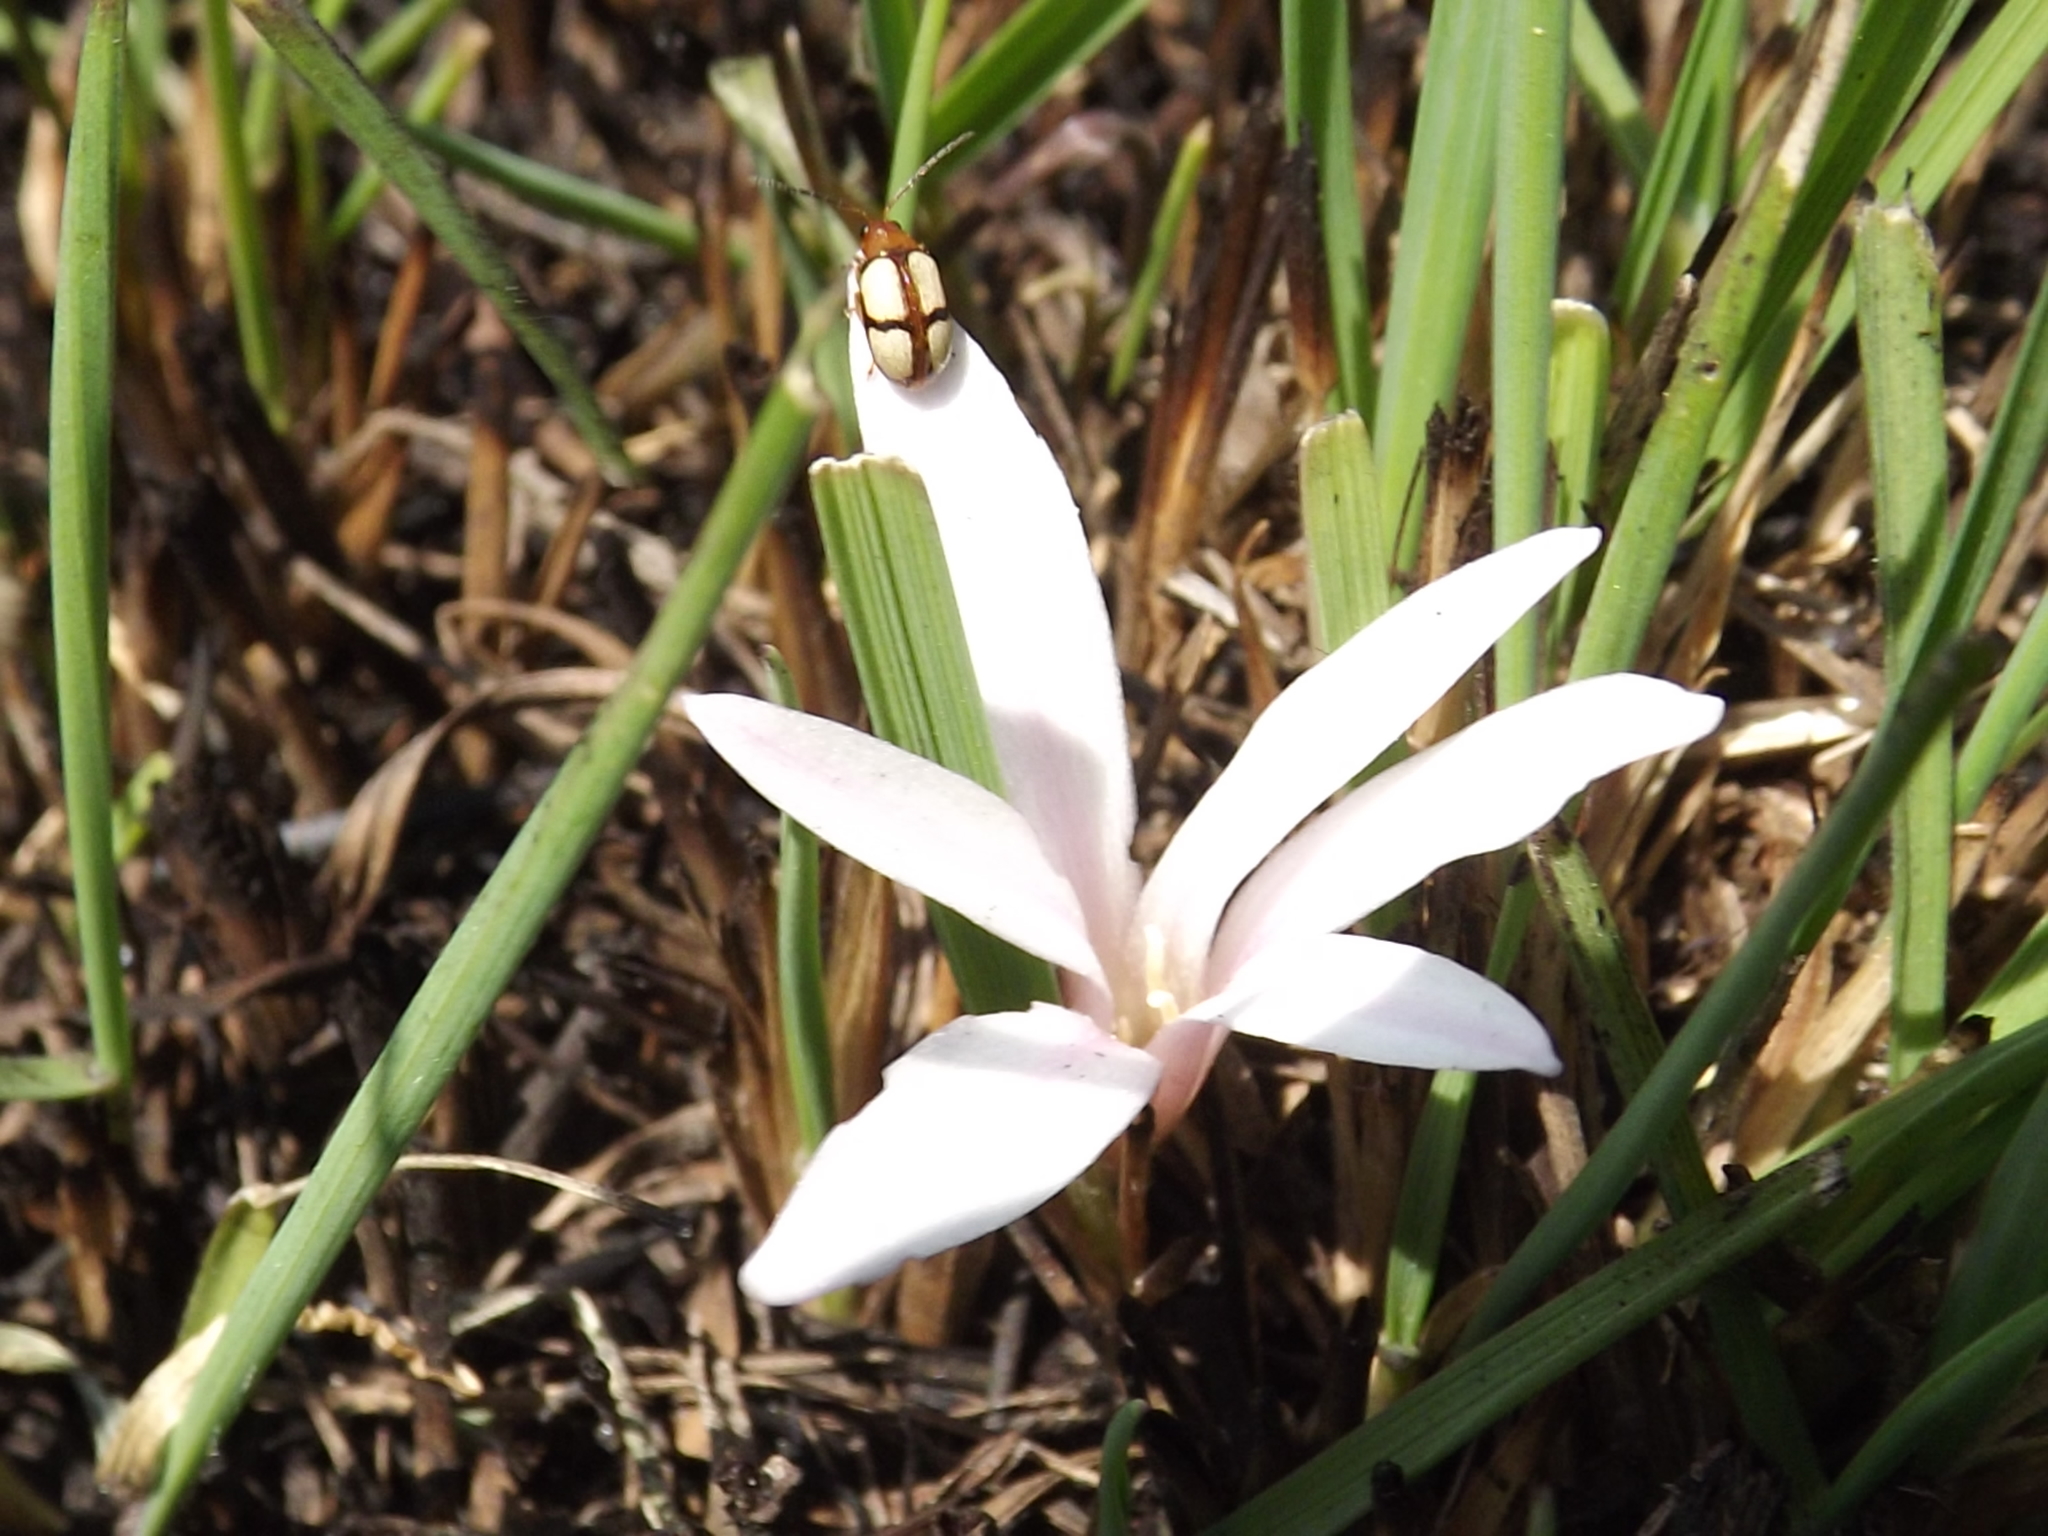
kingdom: Plantae
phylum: Tracheophyta
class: Liliopsida
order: Asparagales
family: Amaryllidaceae
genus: Apodolirion
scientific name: Apodolirion buchananii
